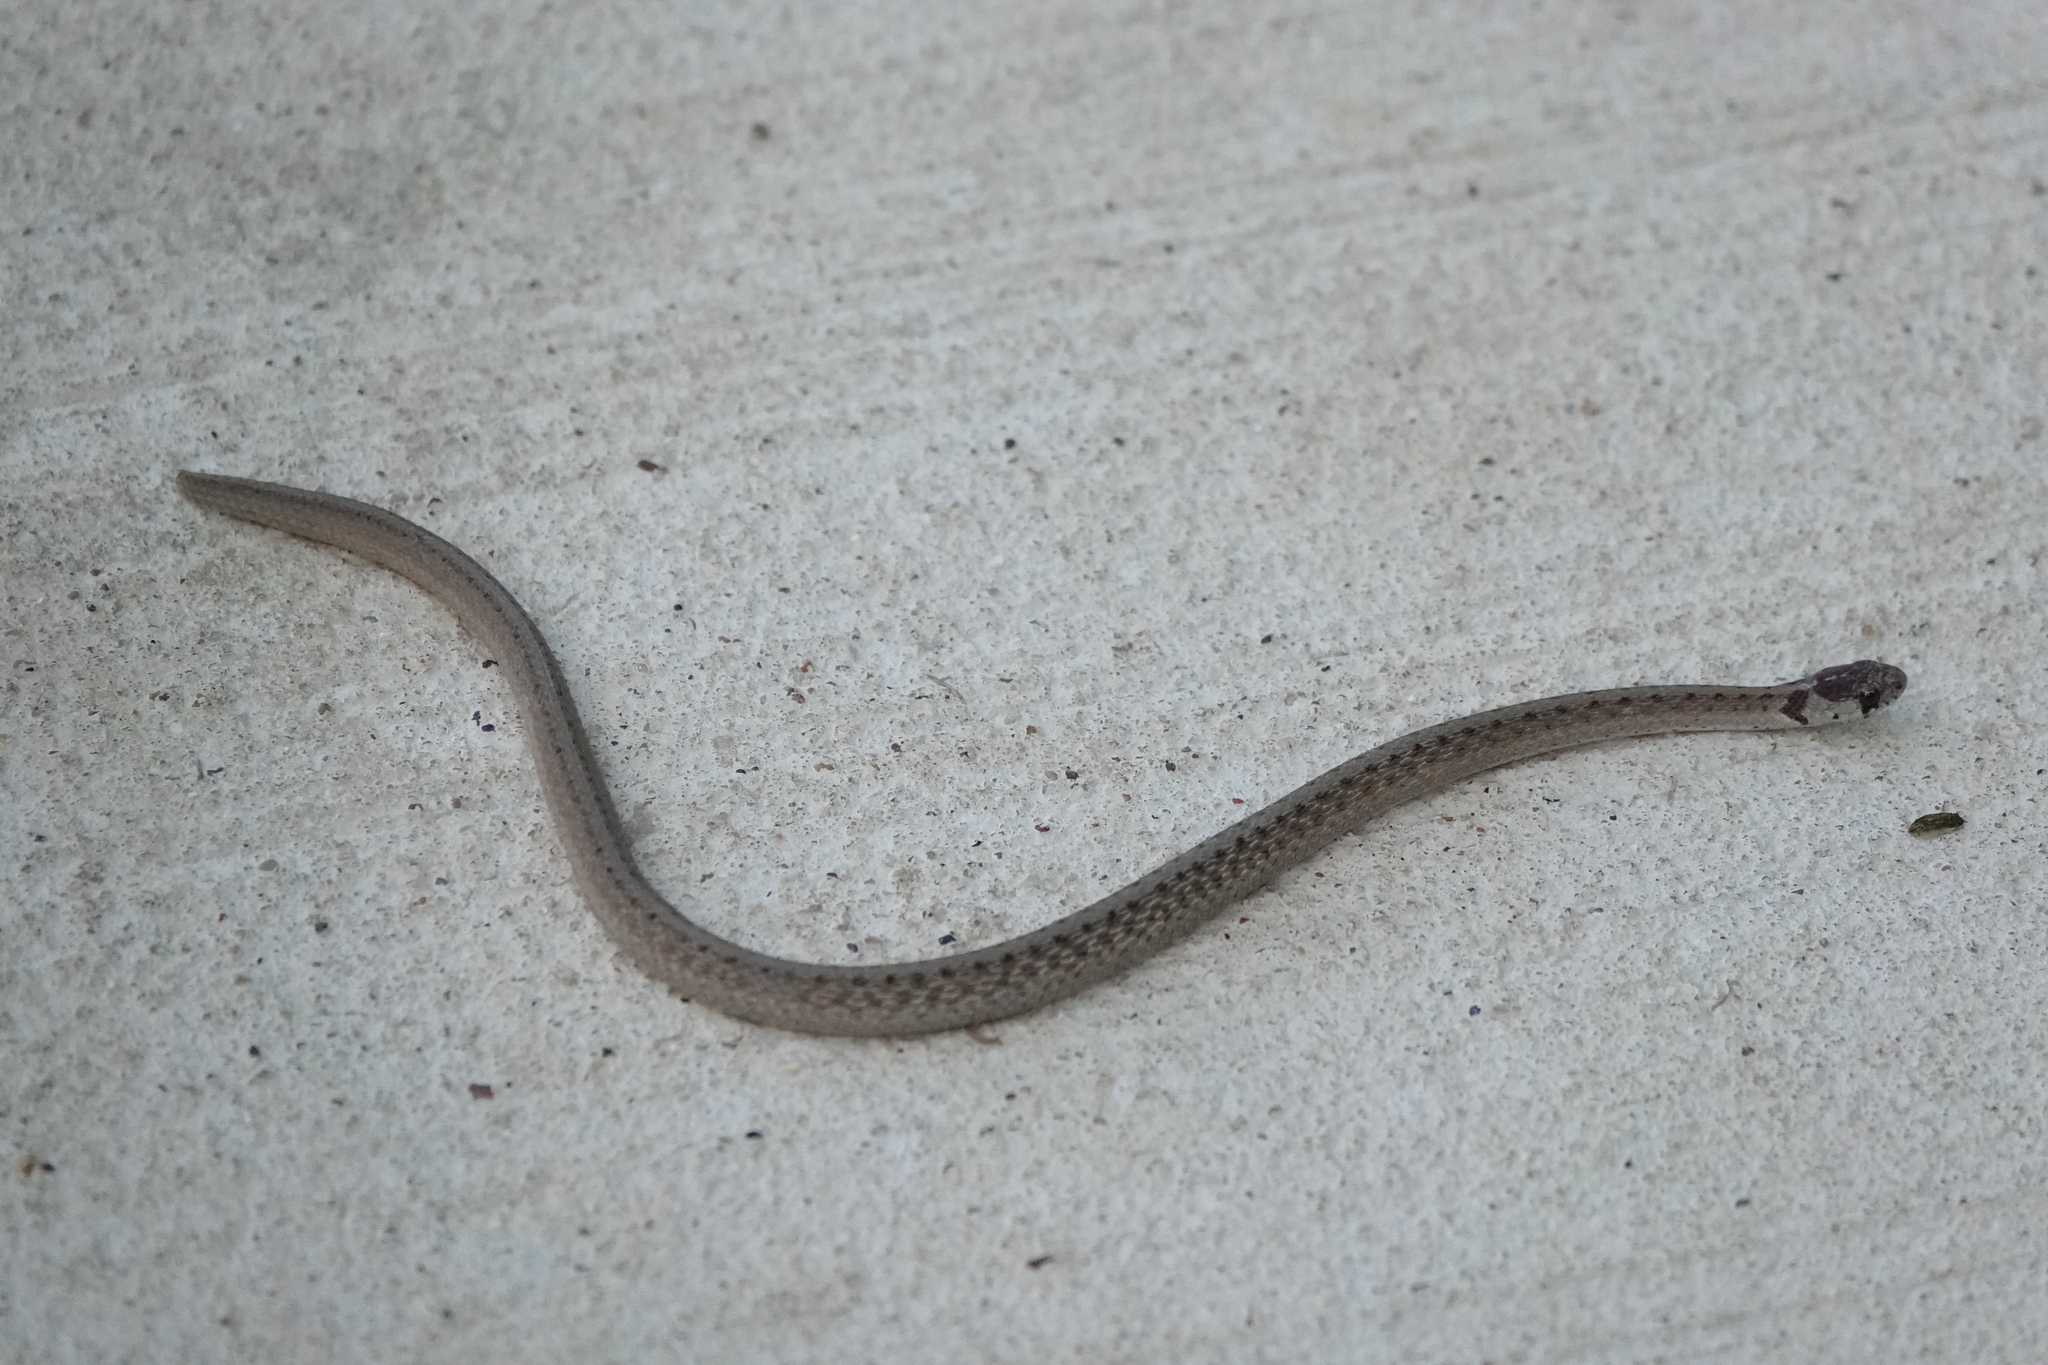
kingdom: Animalia
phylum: Chordata
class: Squamata
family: Colubridae
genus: Storeria
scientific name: Storeria dekayi
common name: (dekay’s) brown snake
